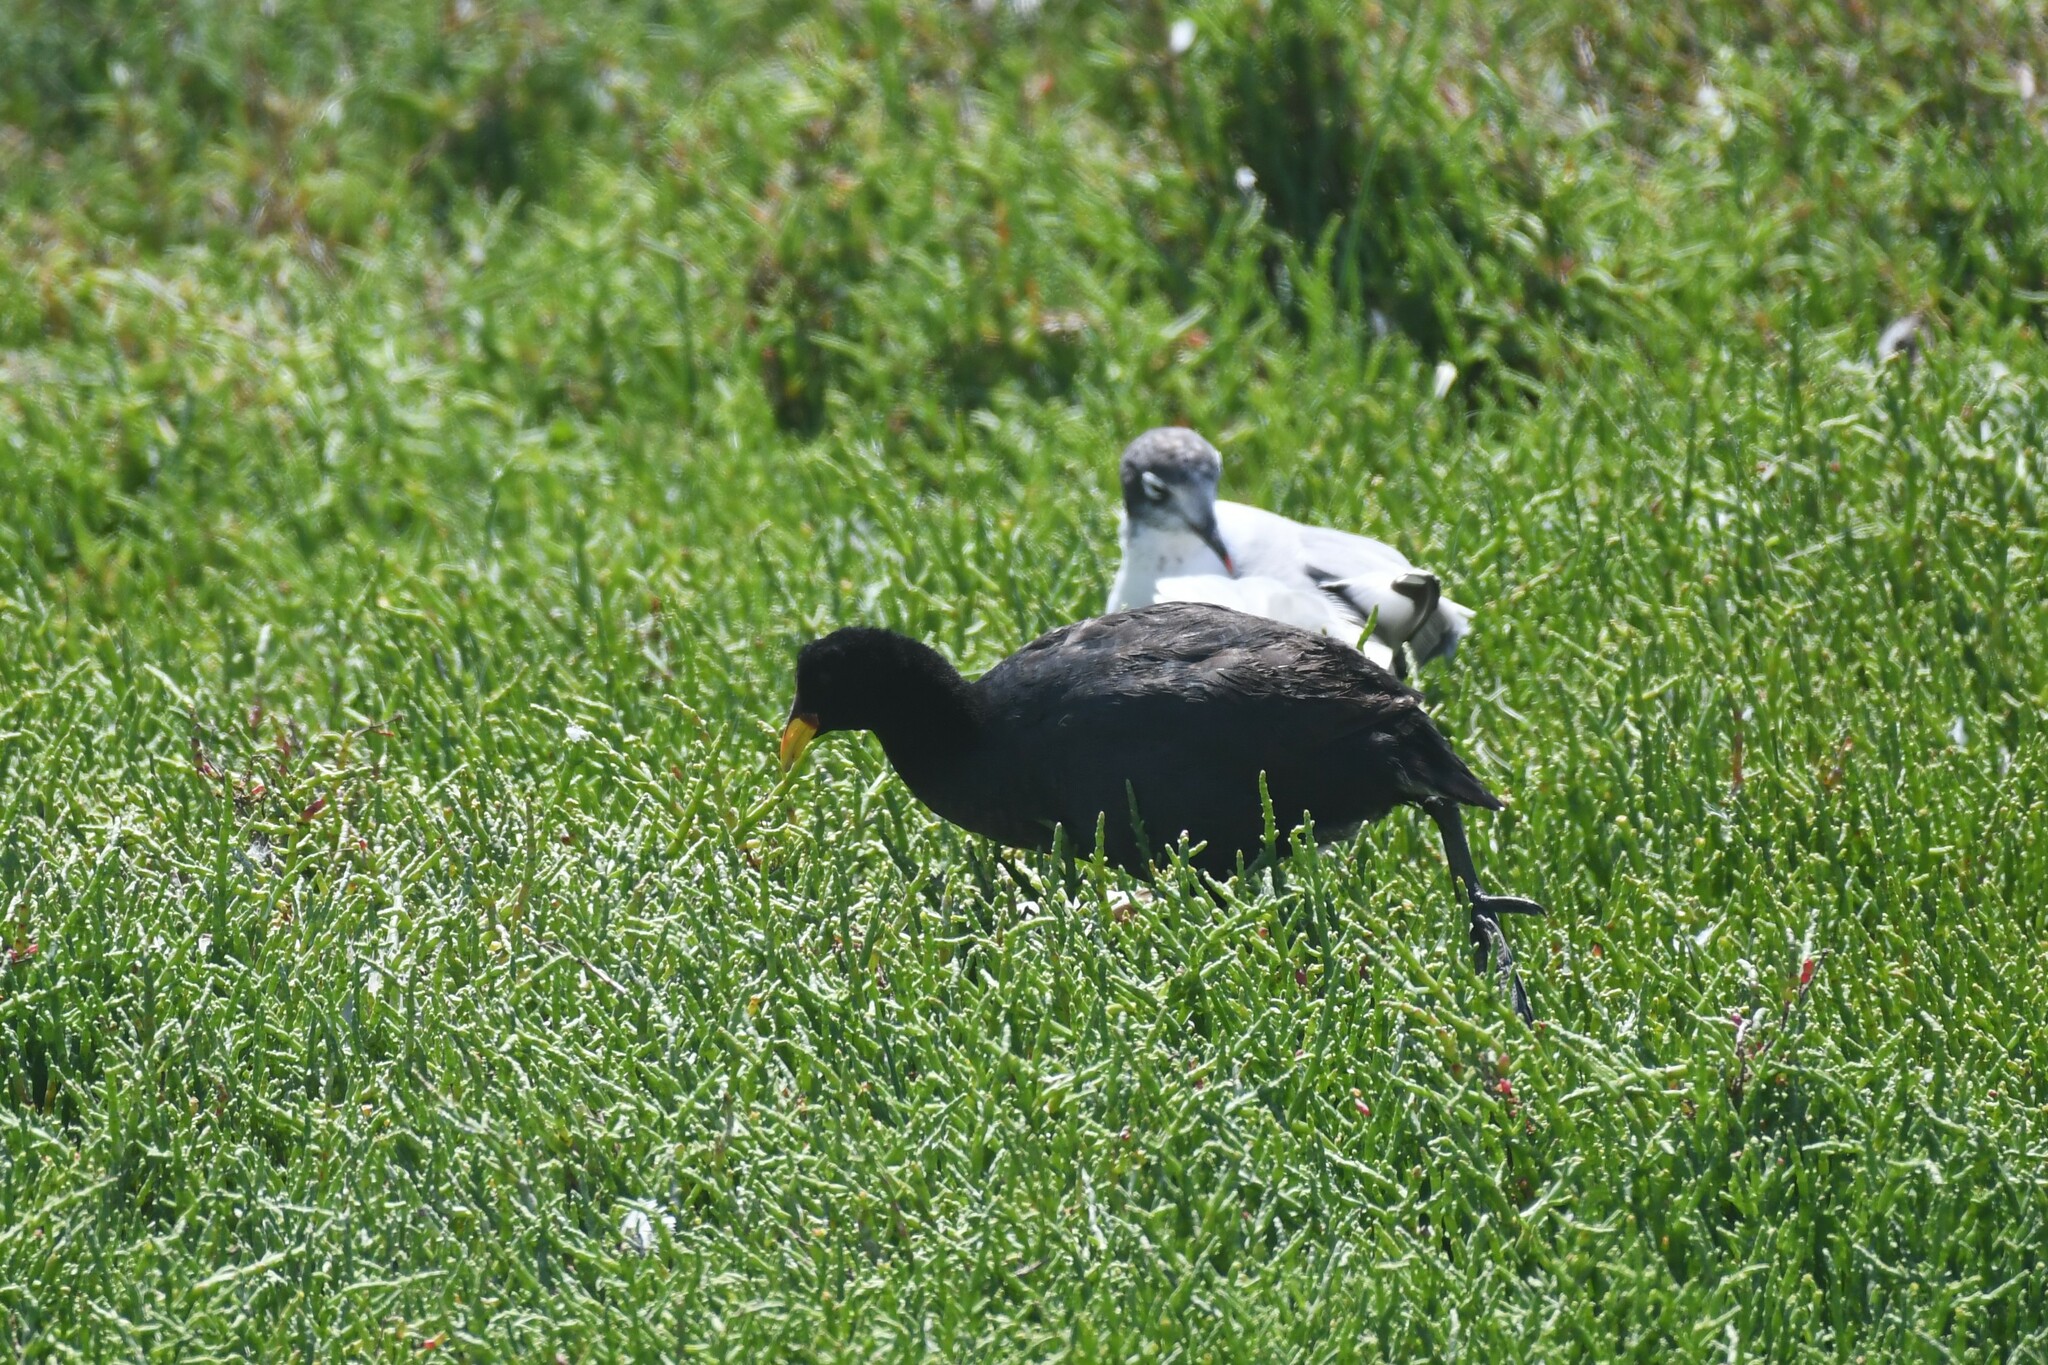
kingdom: Animalia
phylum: Chordata
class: Aves
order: Gruiformes
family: Rallidae
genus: Fulica
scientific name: Fulica rufifrons
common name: Red-fronted coot
